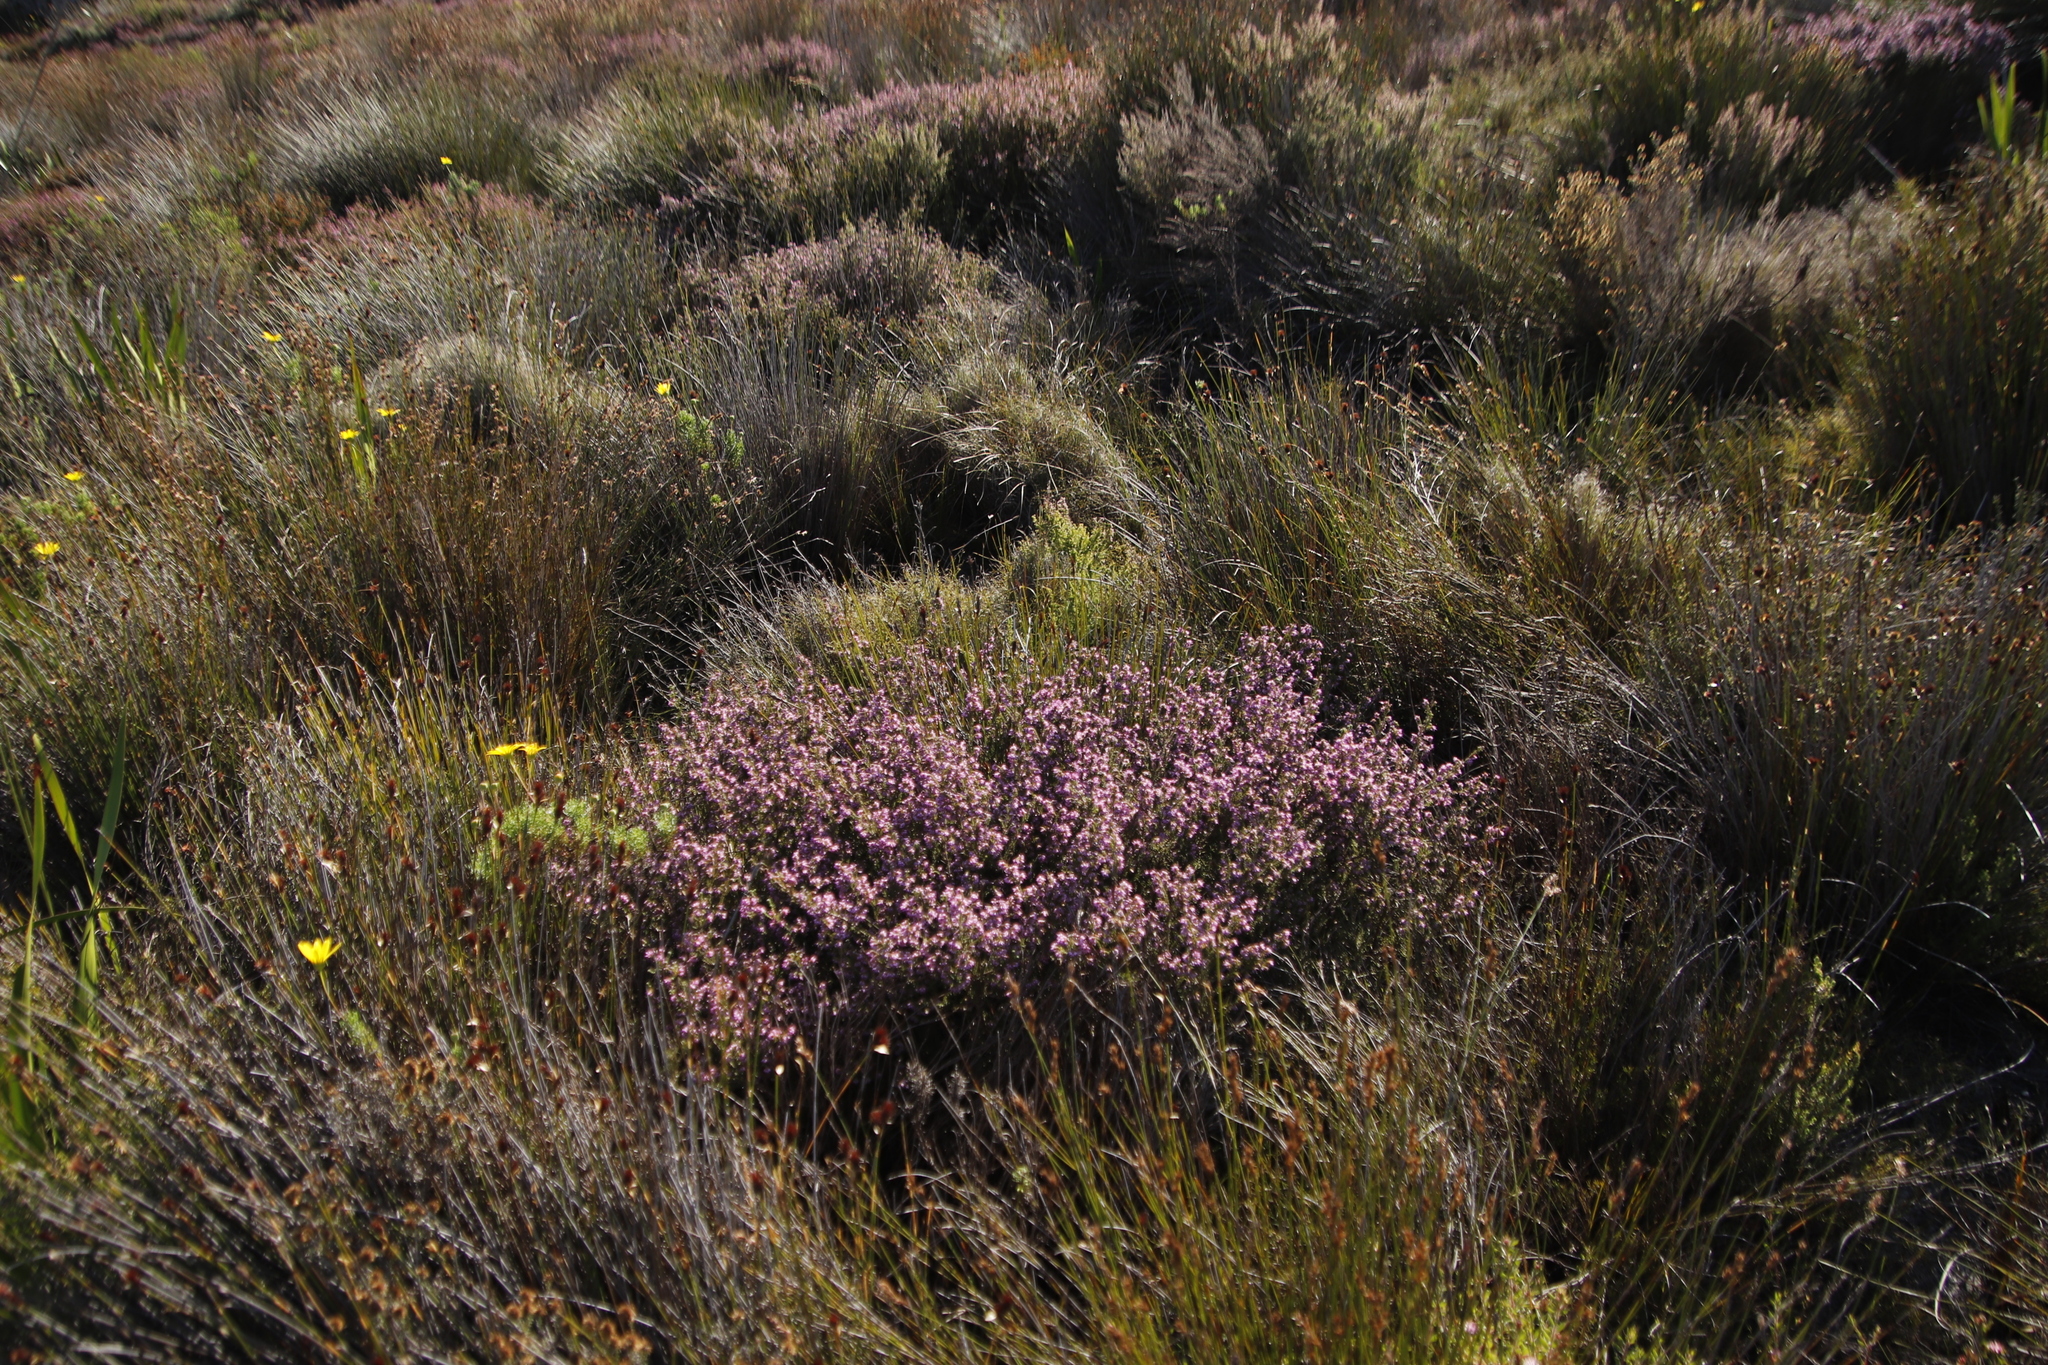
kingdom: Plantae
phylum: Tracheophyta
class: Magnoliopsida
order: Ericales
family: Ericaceae
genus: Erica
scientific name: Erica glabella
